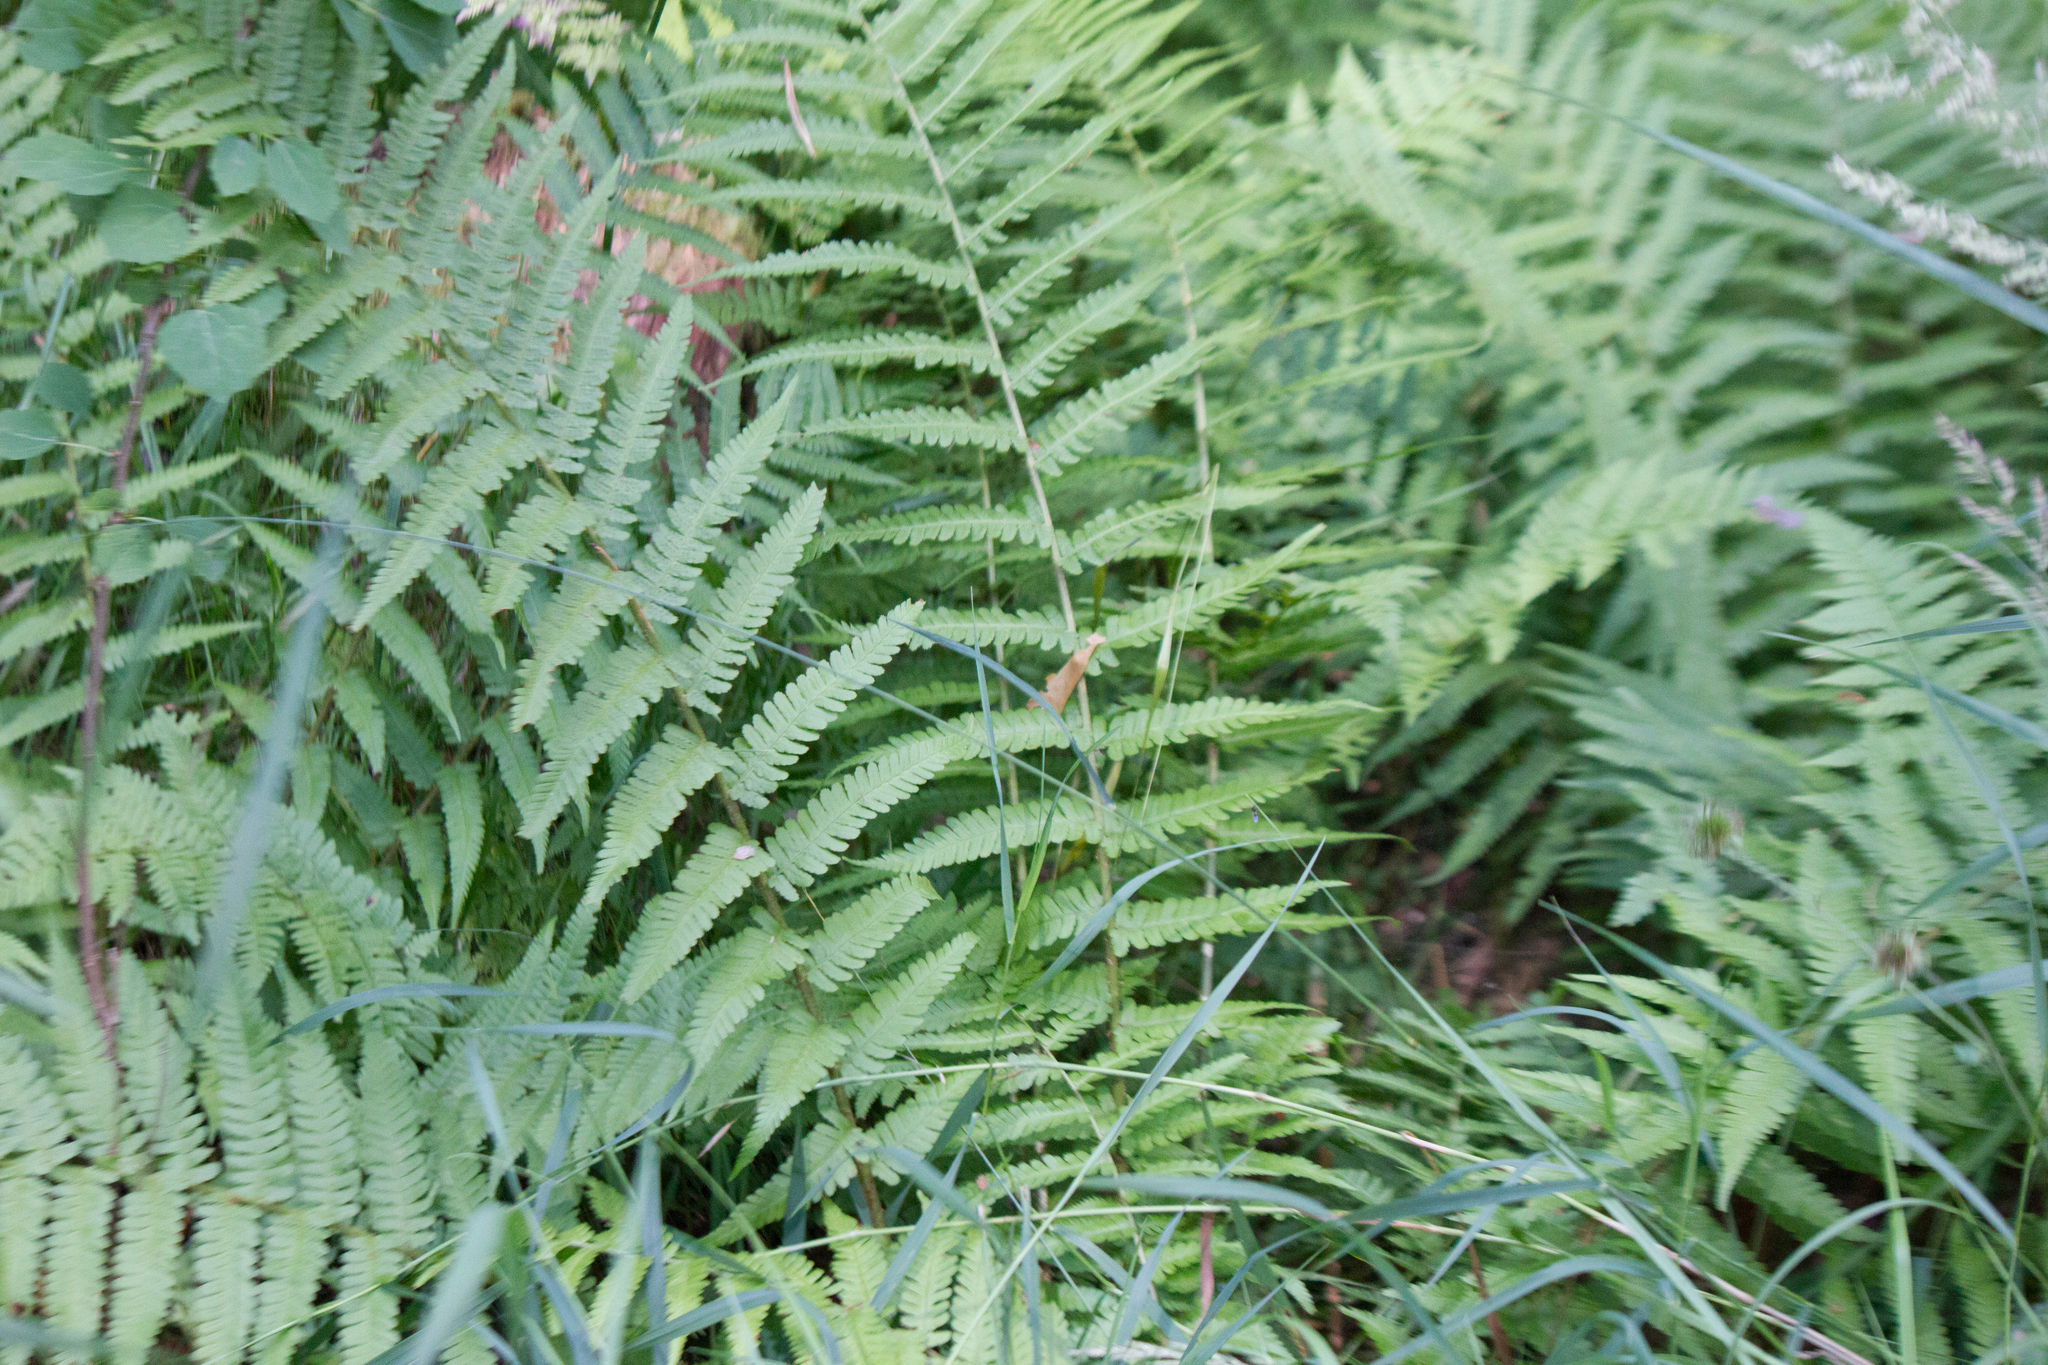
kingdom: Plantae
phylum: Tracheophyta
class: Polypodiopsida
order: Polypodiales
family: Dryopteridaceae
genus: Dryopteris
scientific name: Dryopteris filix-mas
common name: Male fern
